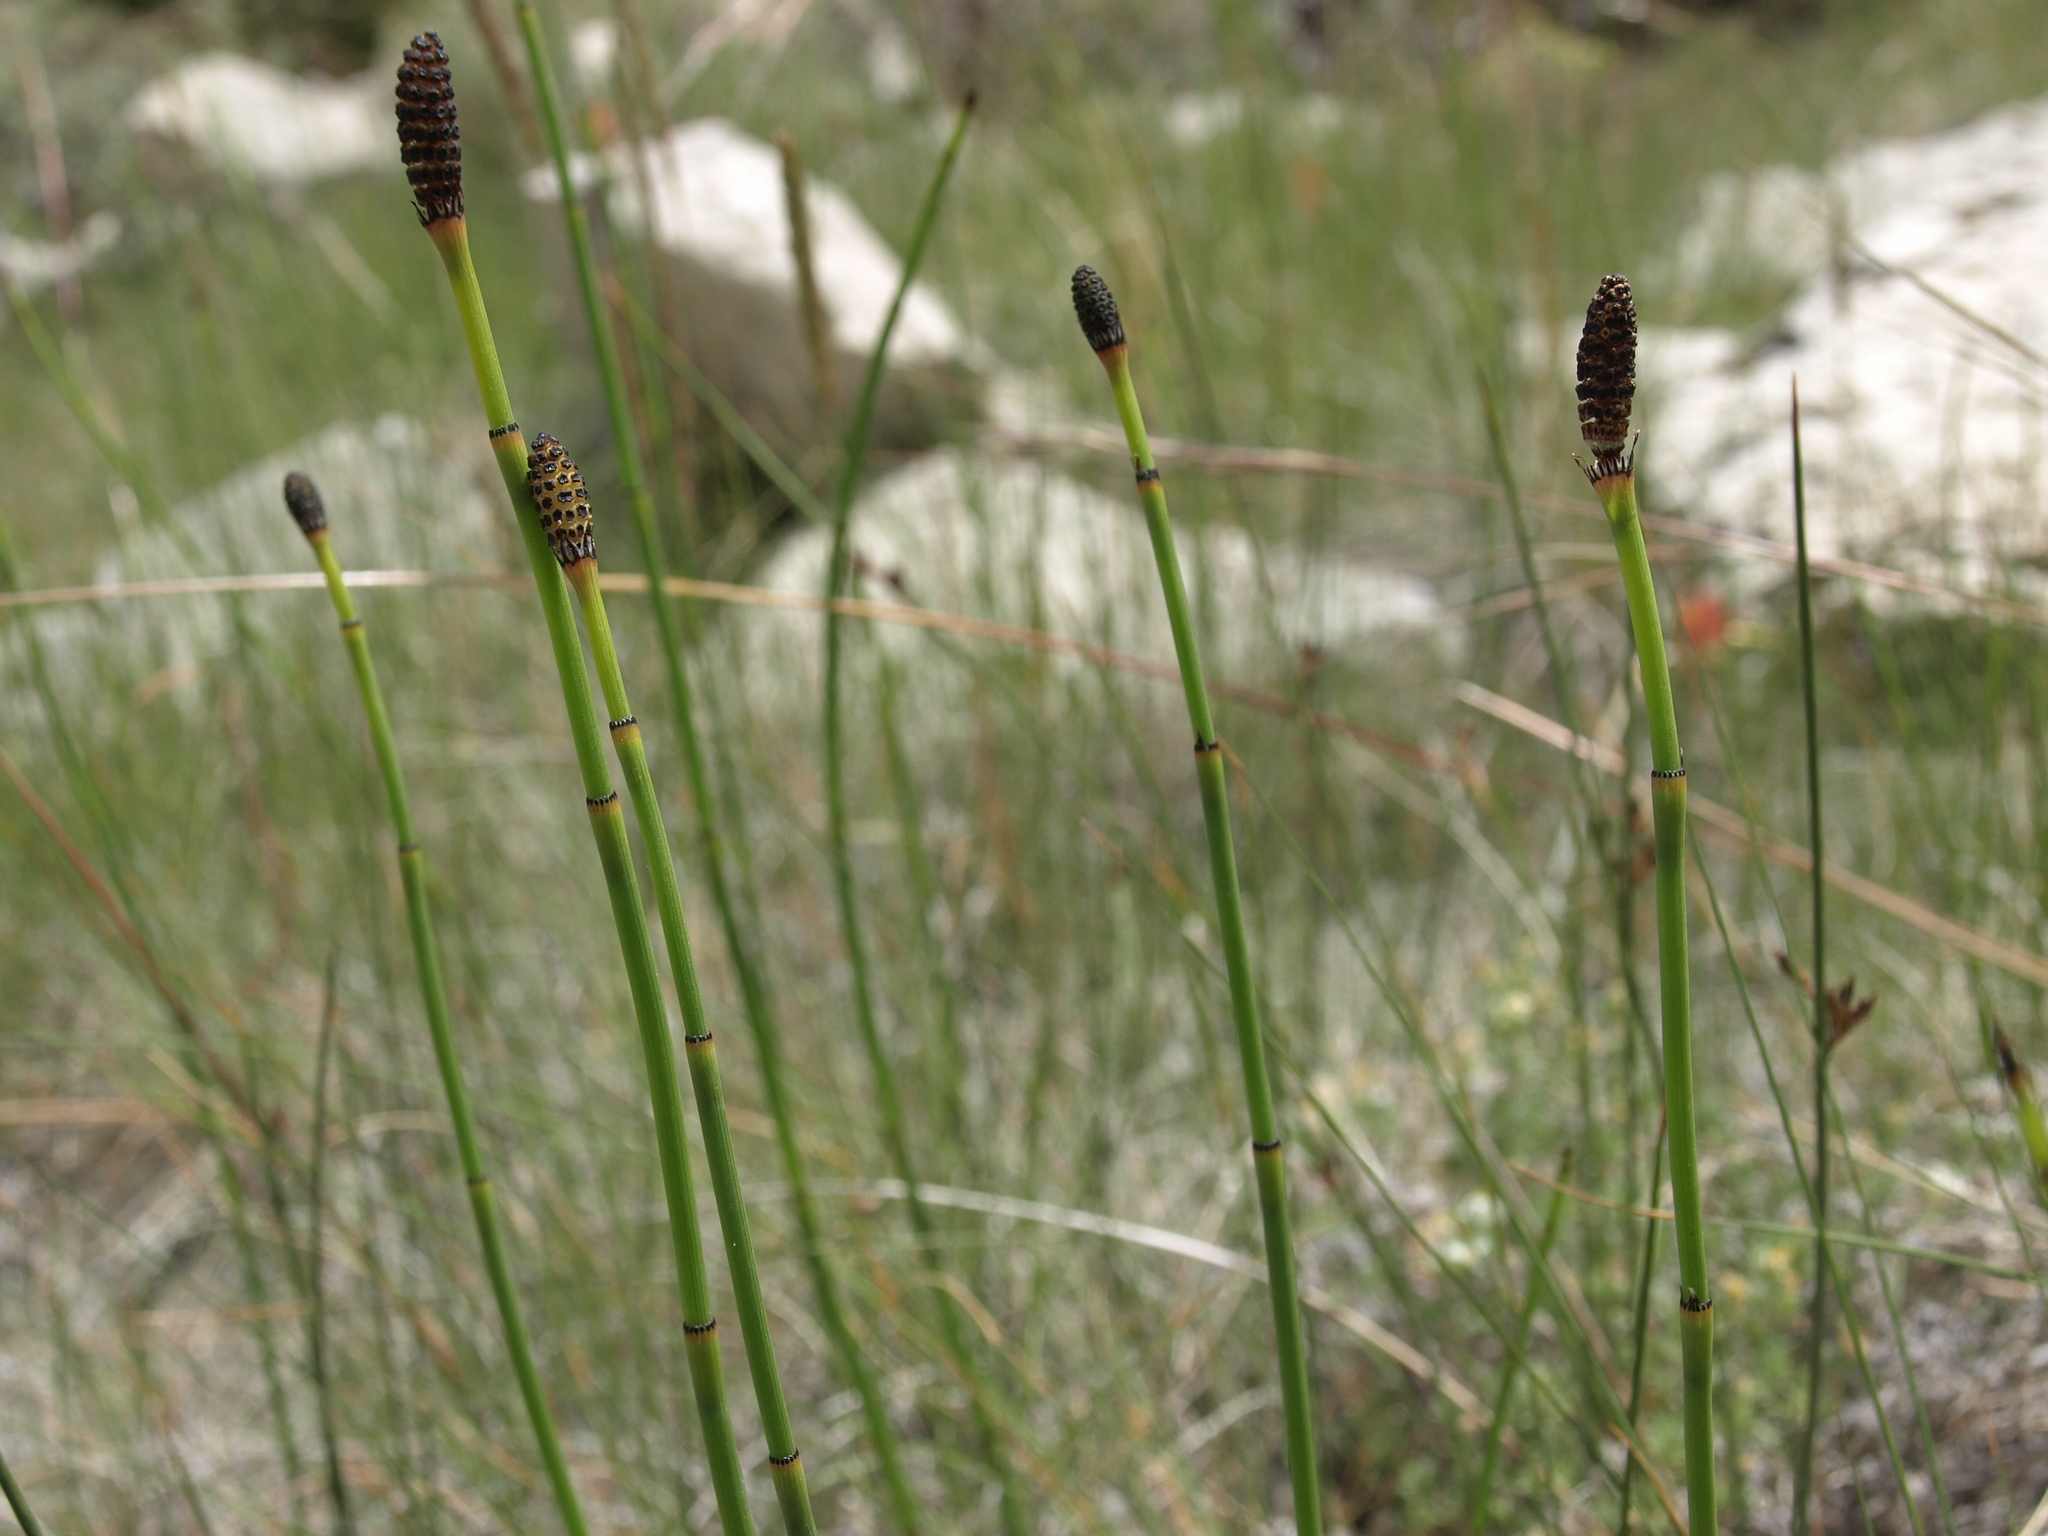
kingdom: Plantae
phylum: Tracheophyta
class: Polypodiopsida
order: Equisetales
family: Equisetaceae
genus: Equisetum
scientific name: Equisetum laevigatum
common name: Smooth scouring-rush
